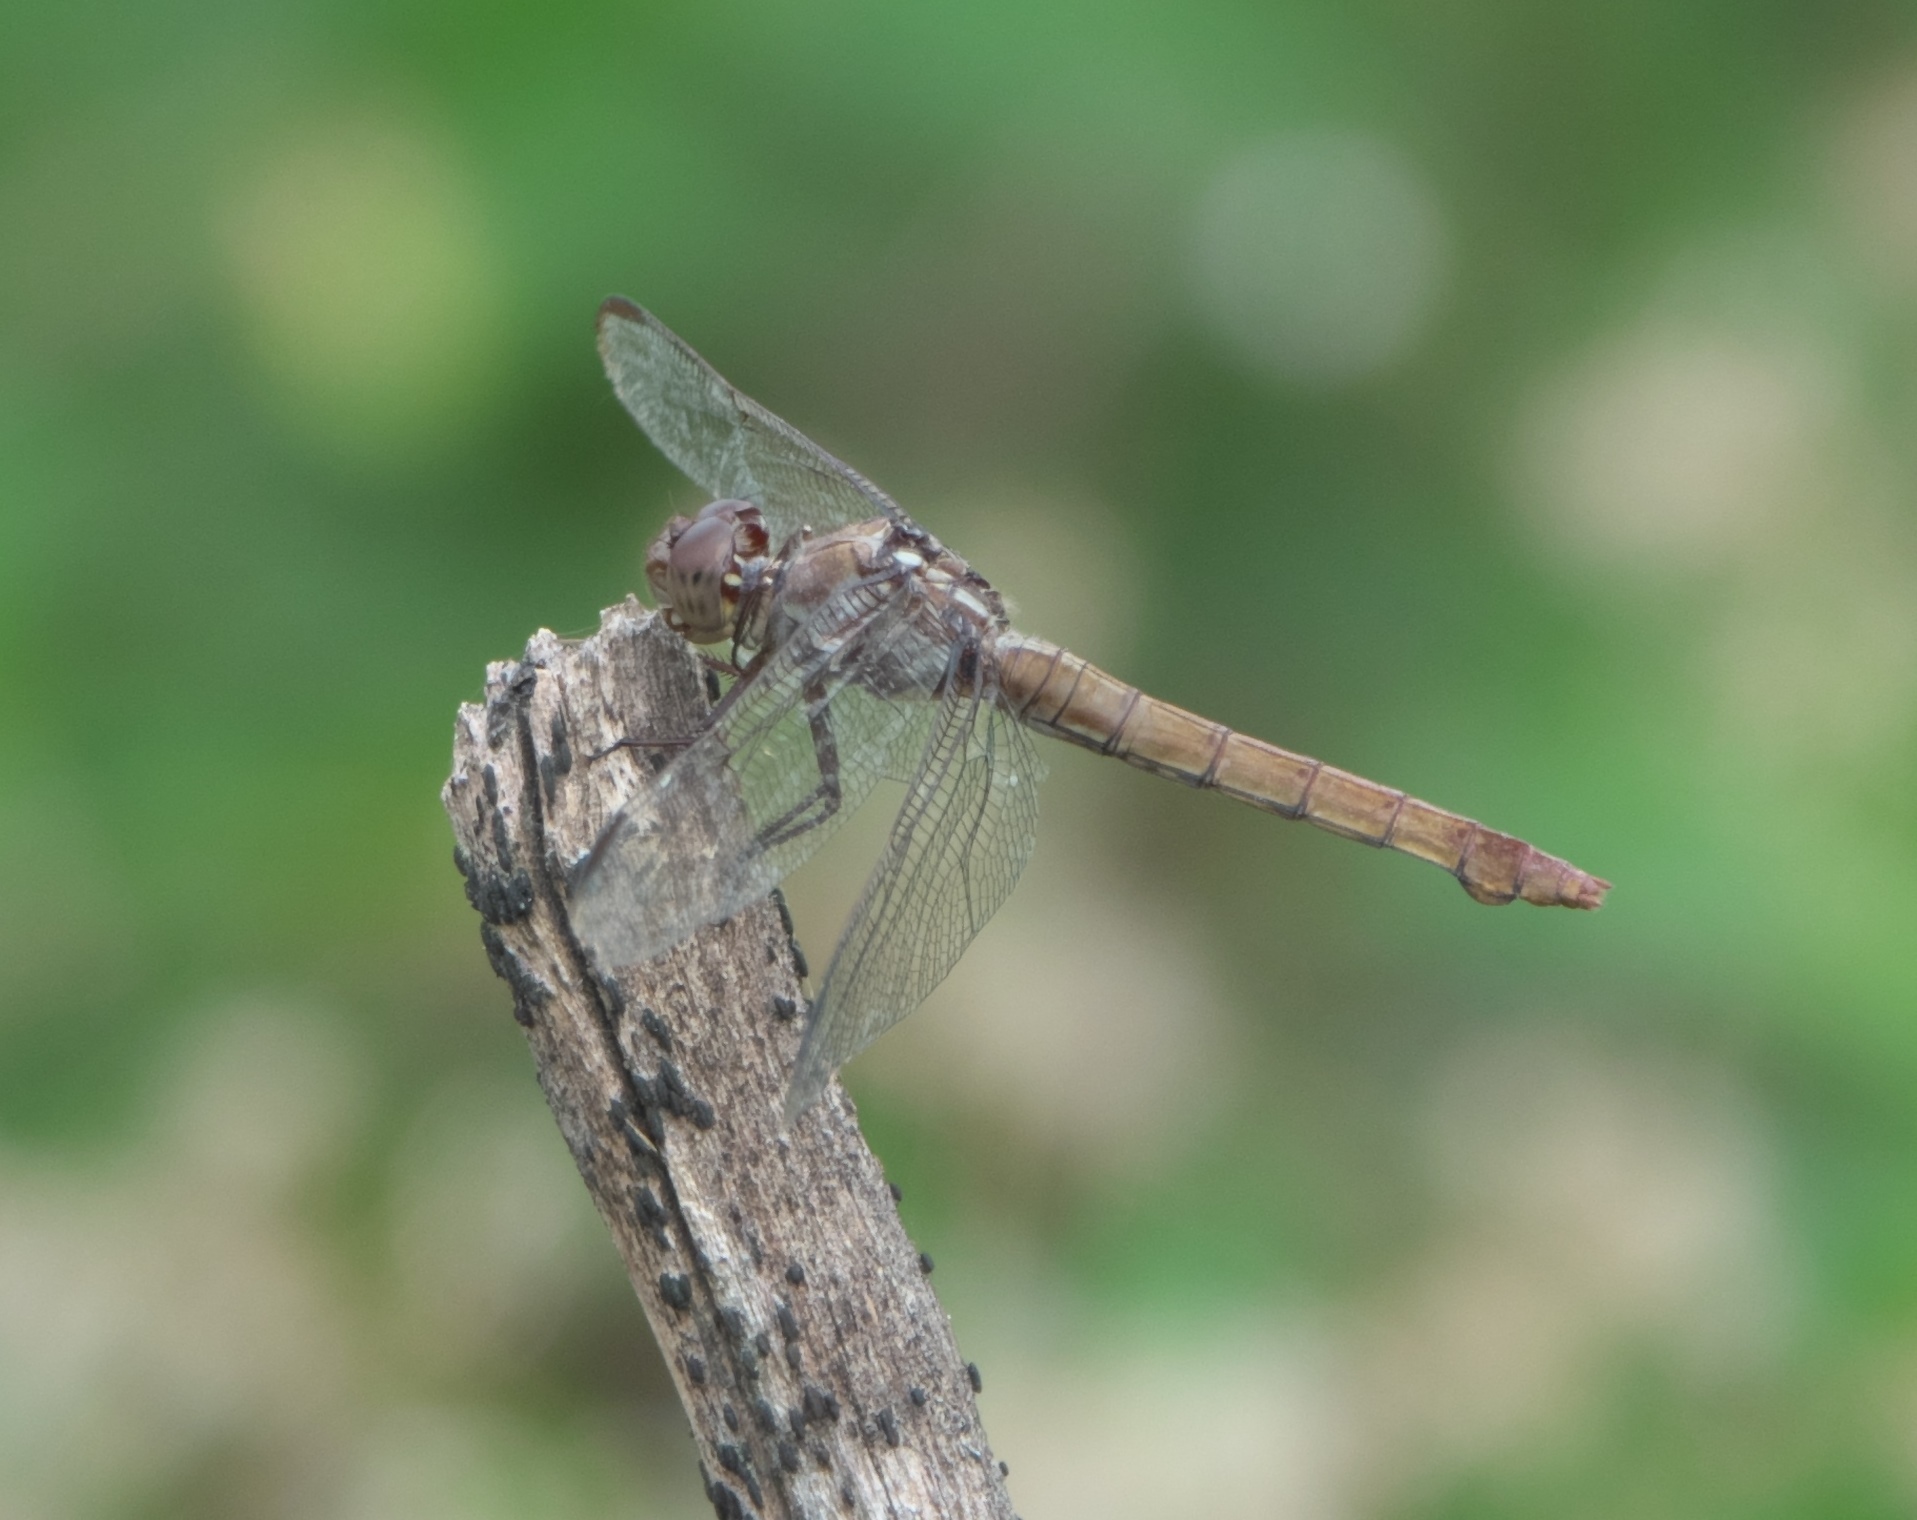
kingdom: Animalia
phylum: Arthropoda
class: Insecta
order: Odonata
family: Libellulidae
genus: Orthemis
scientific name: Orthemis ferruginea
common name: Roseate skimmer
